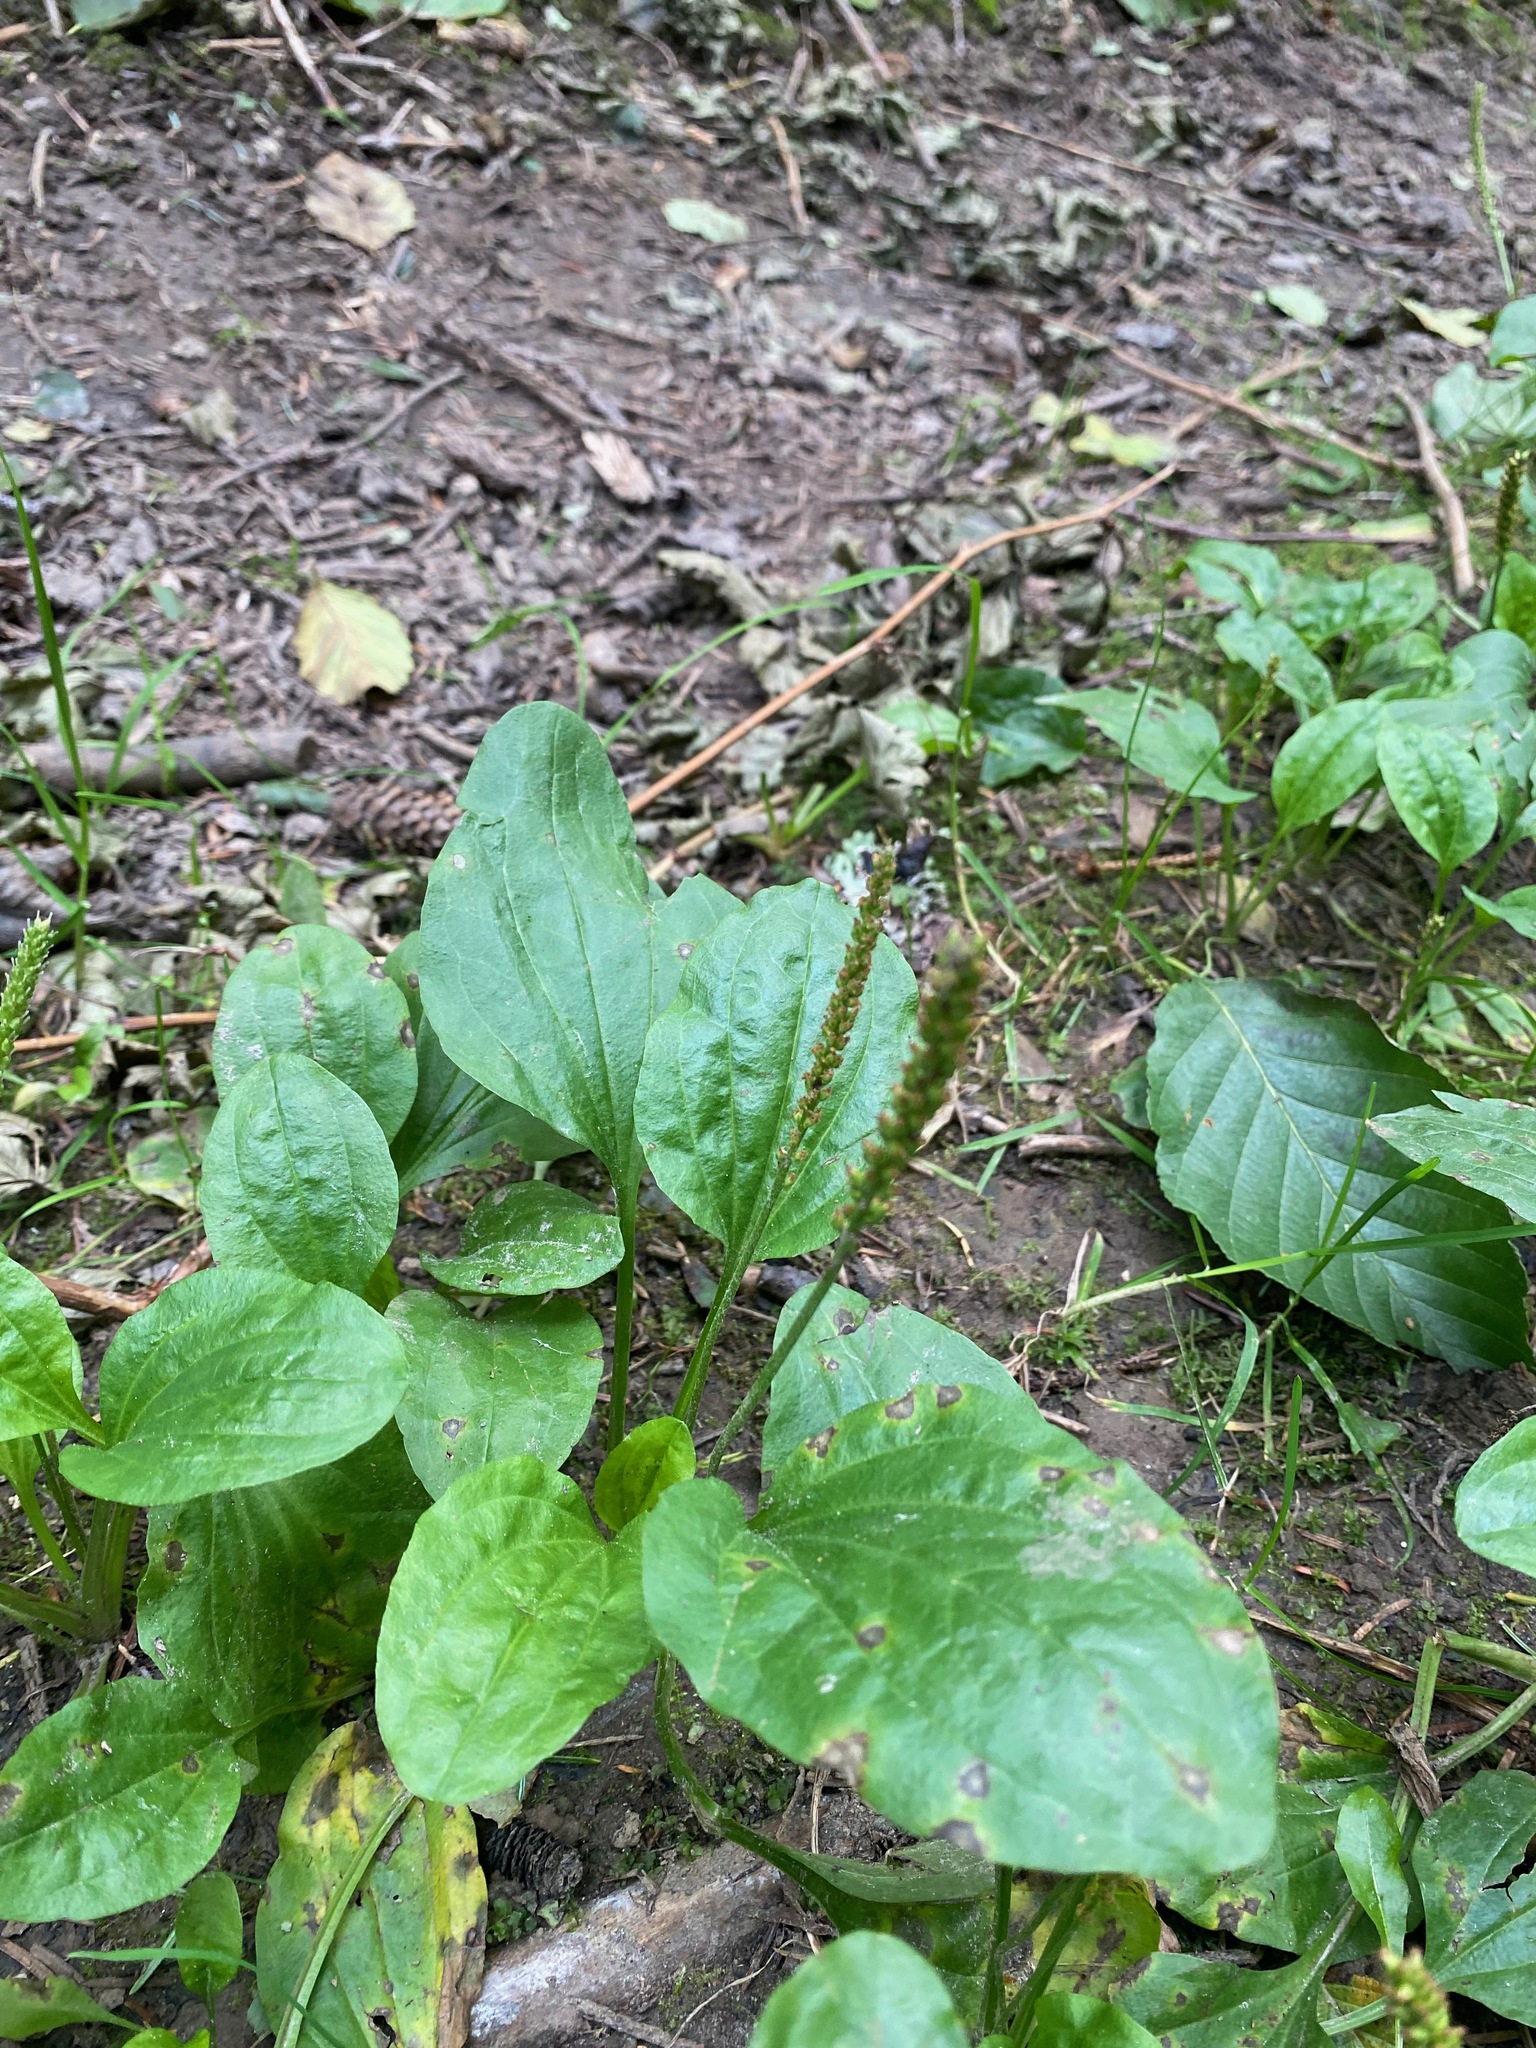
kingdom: Plantae
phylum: Tracheophyta
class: Magnoliopsida
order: Lamiales
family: Plantaginaceae
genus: Plantago
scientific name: Plantago major
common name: Common plantain
